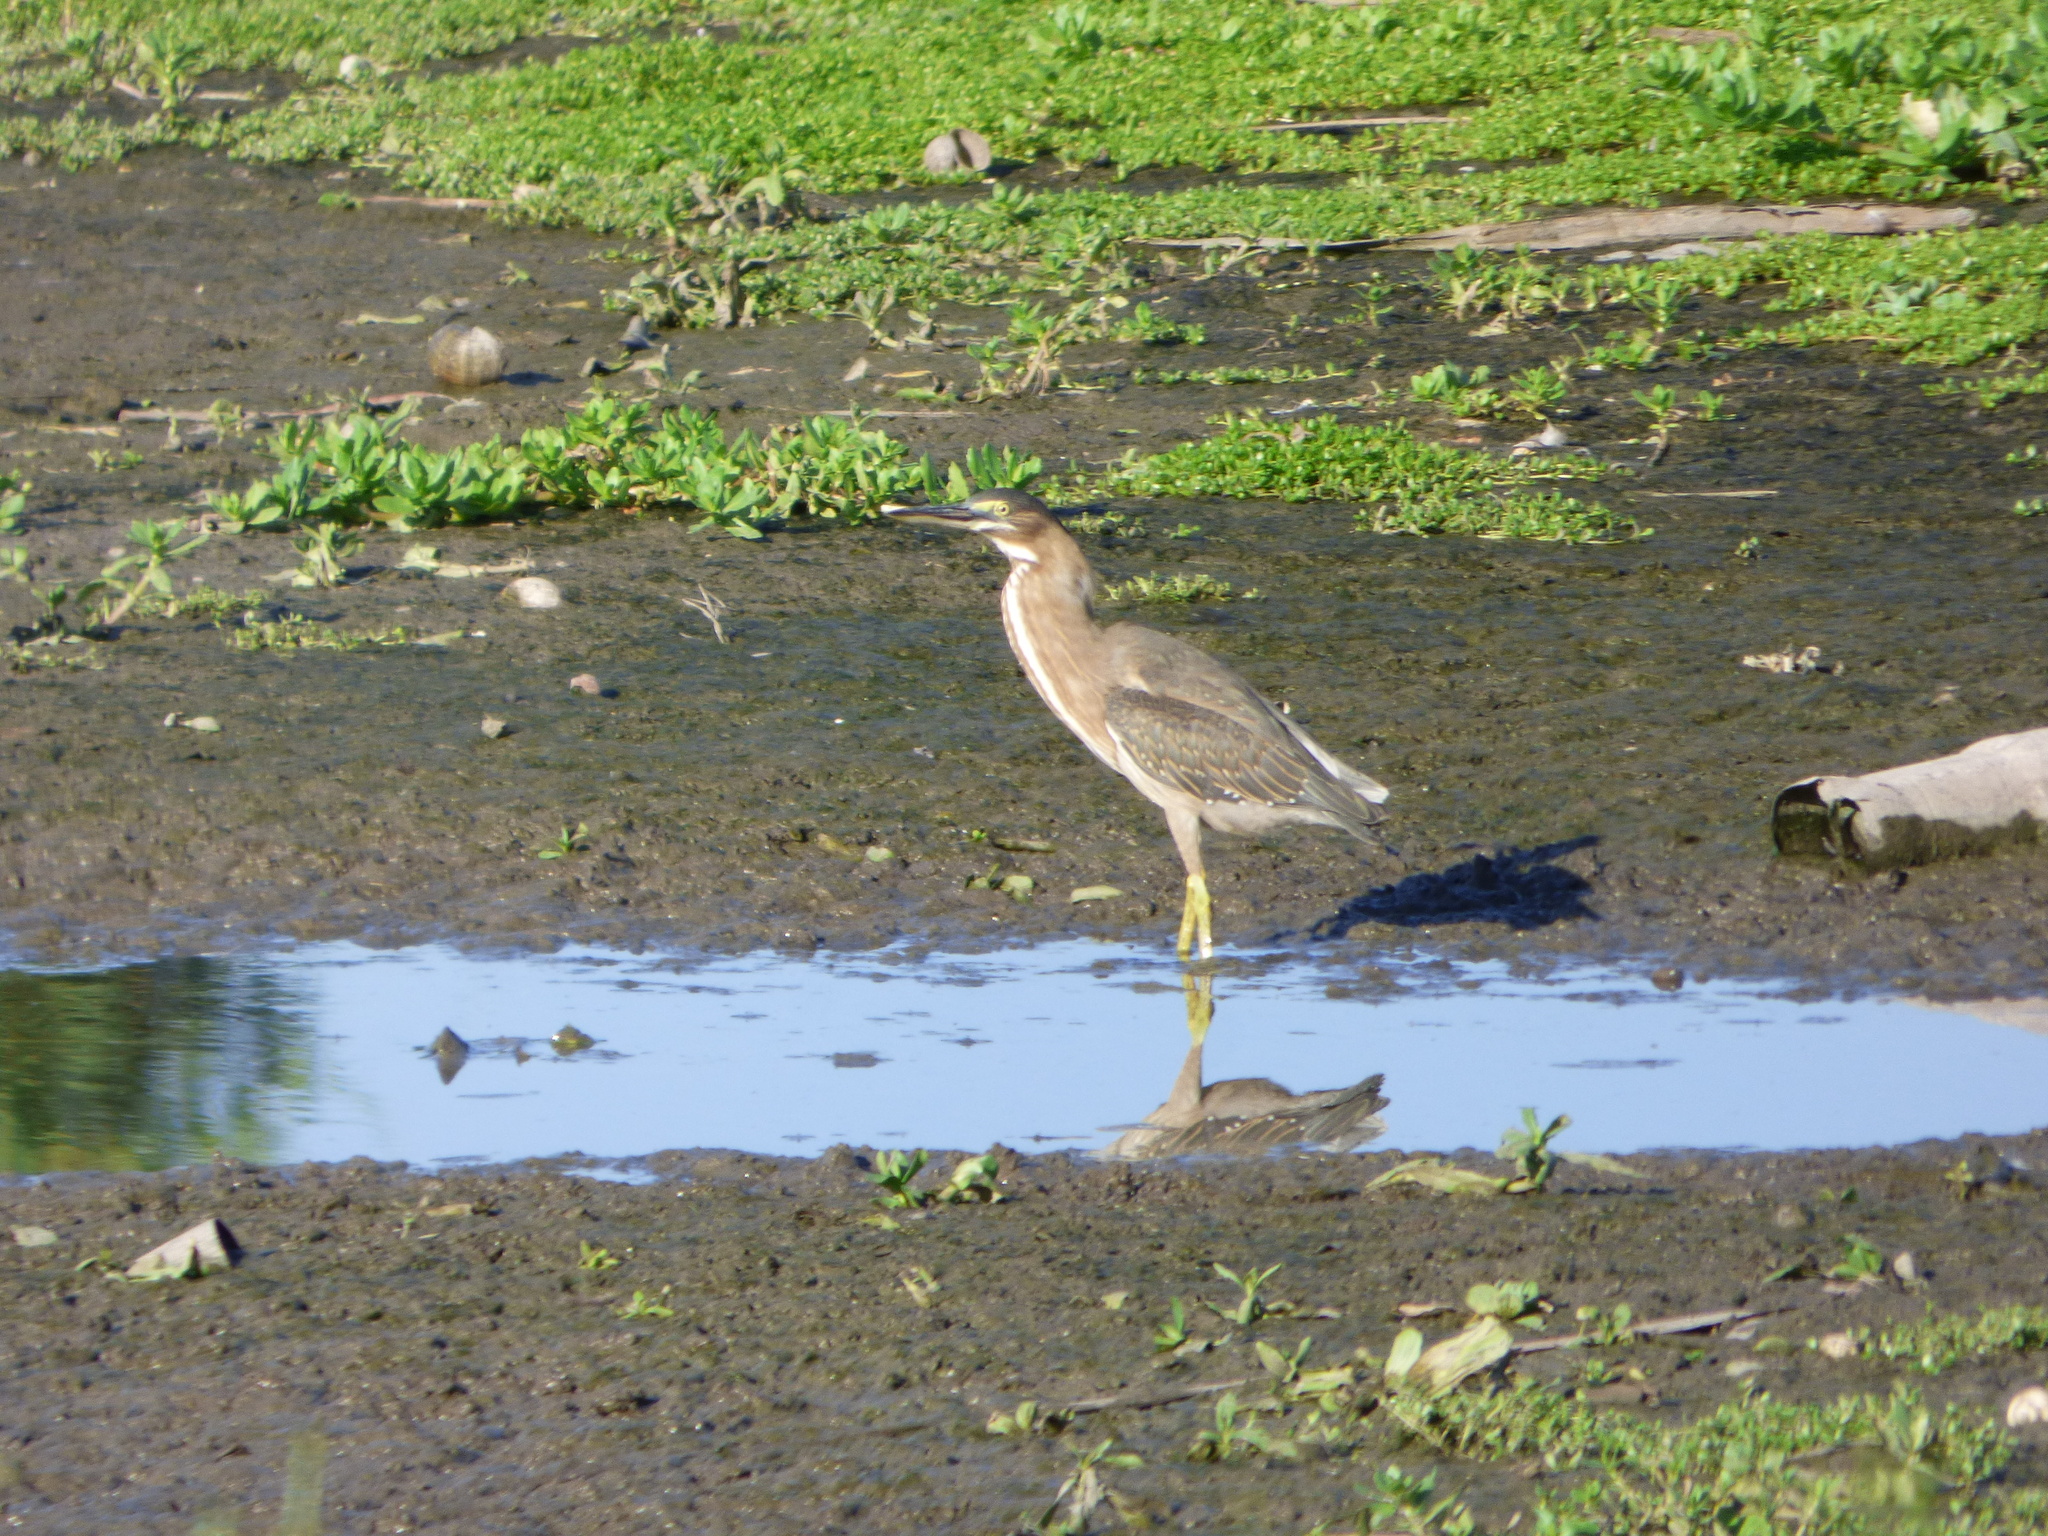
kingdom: Animalia
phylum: Chordata
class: Aves
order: Pelecaniformes
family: Ardeidae
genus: Butorides
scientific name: Butorides striata
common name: Striated heron
